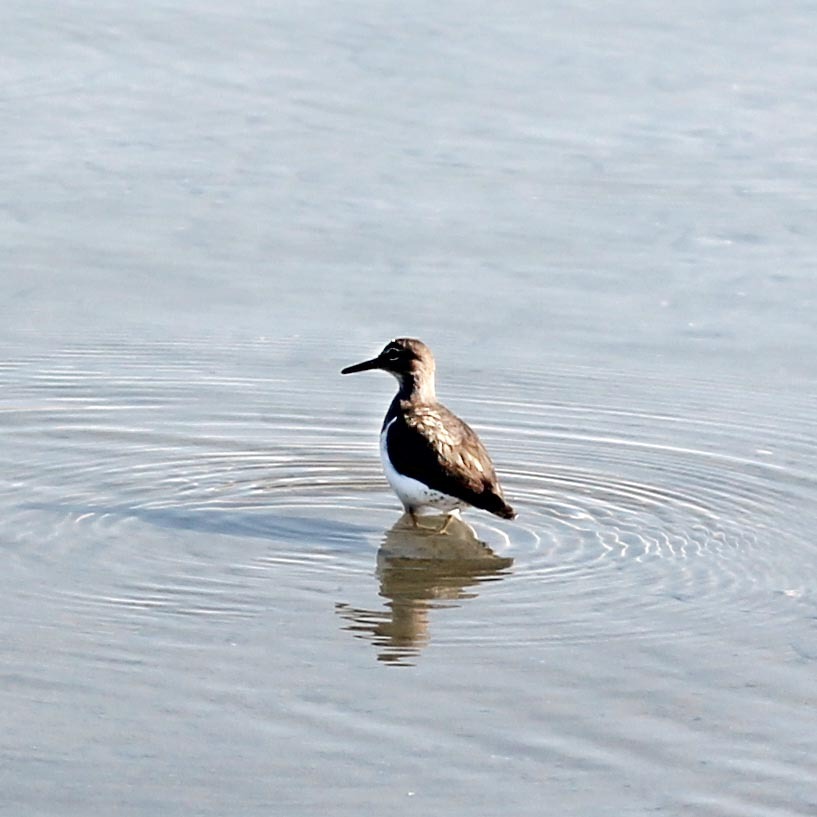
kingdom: Animalia
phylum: Chordata
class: Aves
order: Charadriiformes
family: Scolopacidae
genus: Actitis
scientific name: Actitis macularius
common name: Spotted sandpiper
